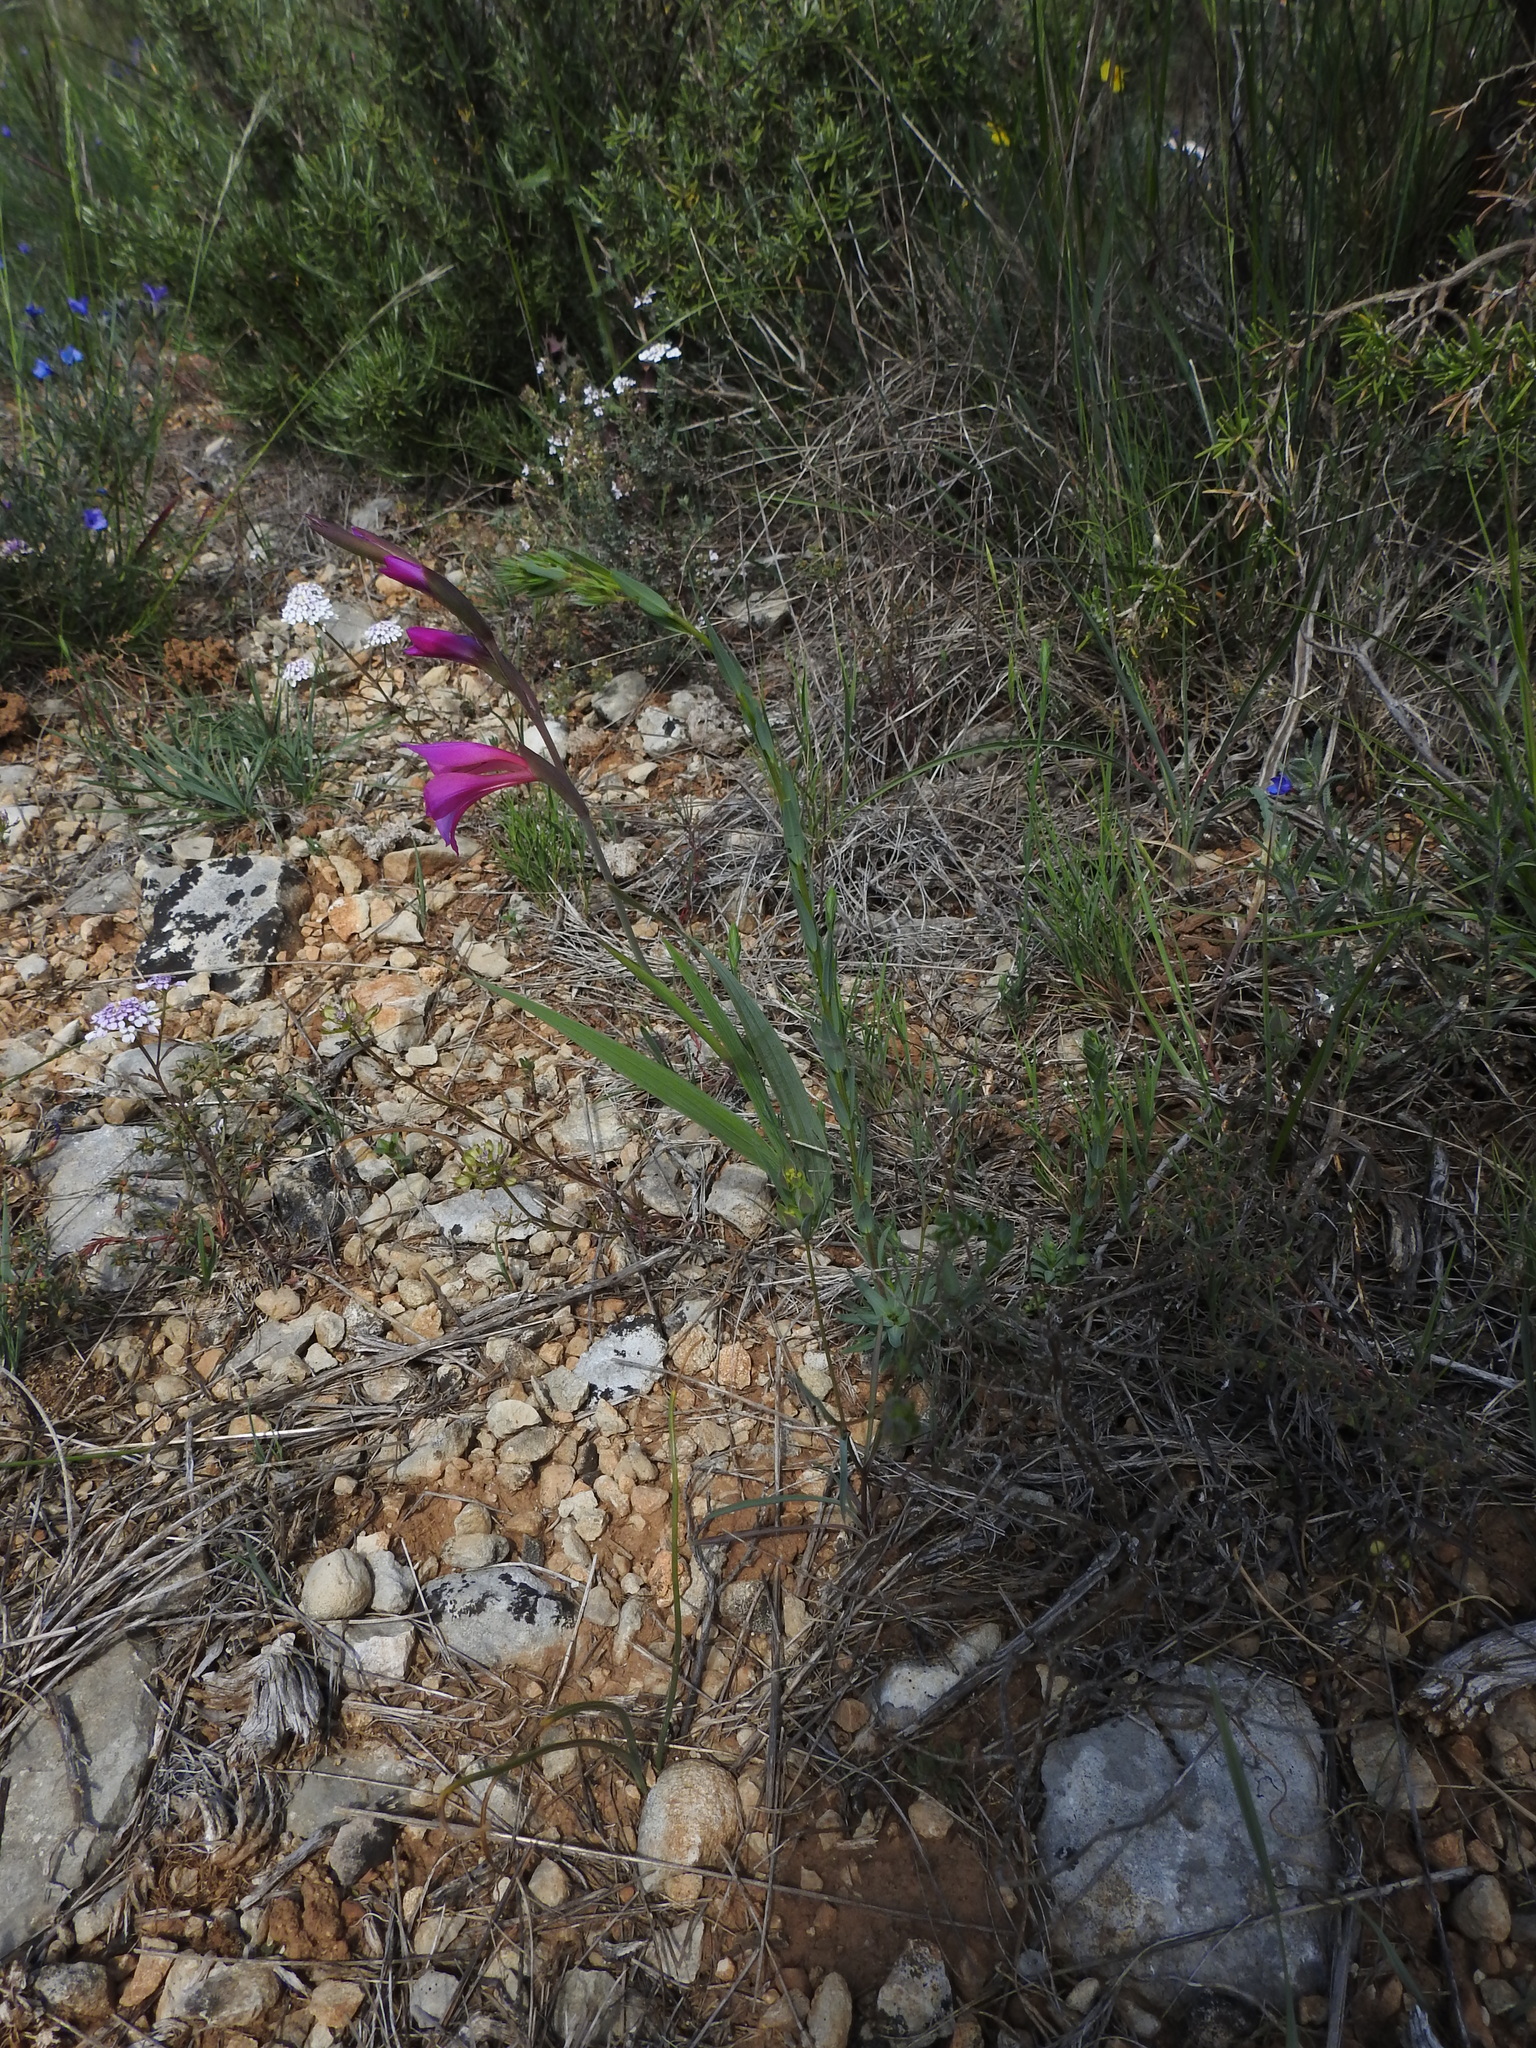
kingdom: Plantae
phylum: Tracheophyta
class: Liliopsida
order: Asparagales
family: Iridaceae
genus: Gladiolus
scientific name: Gladiolus dubius
